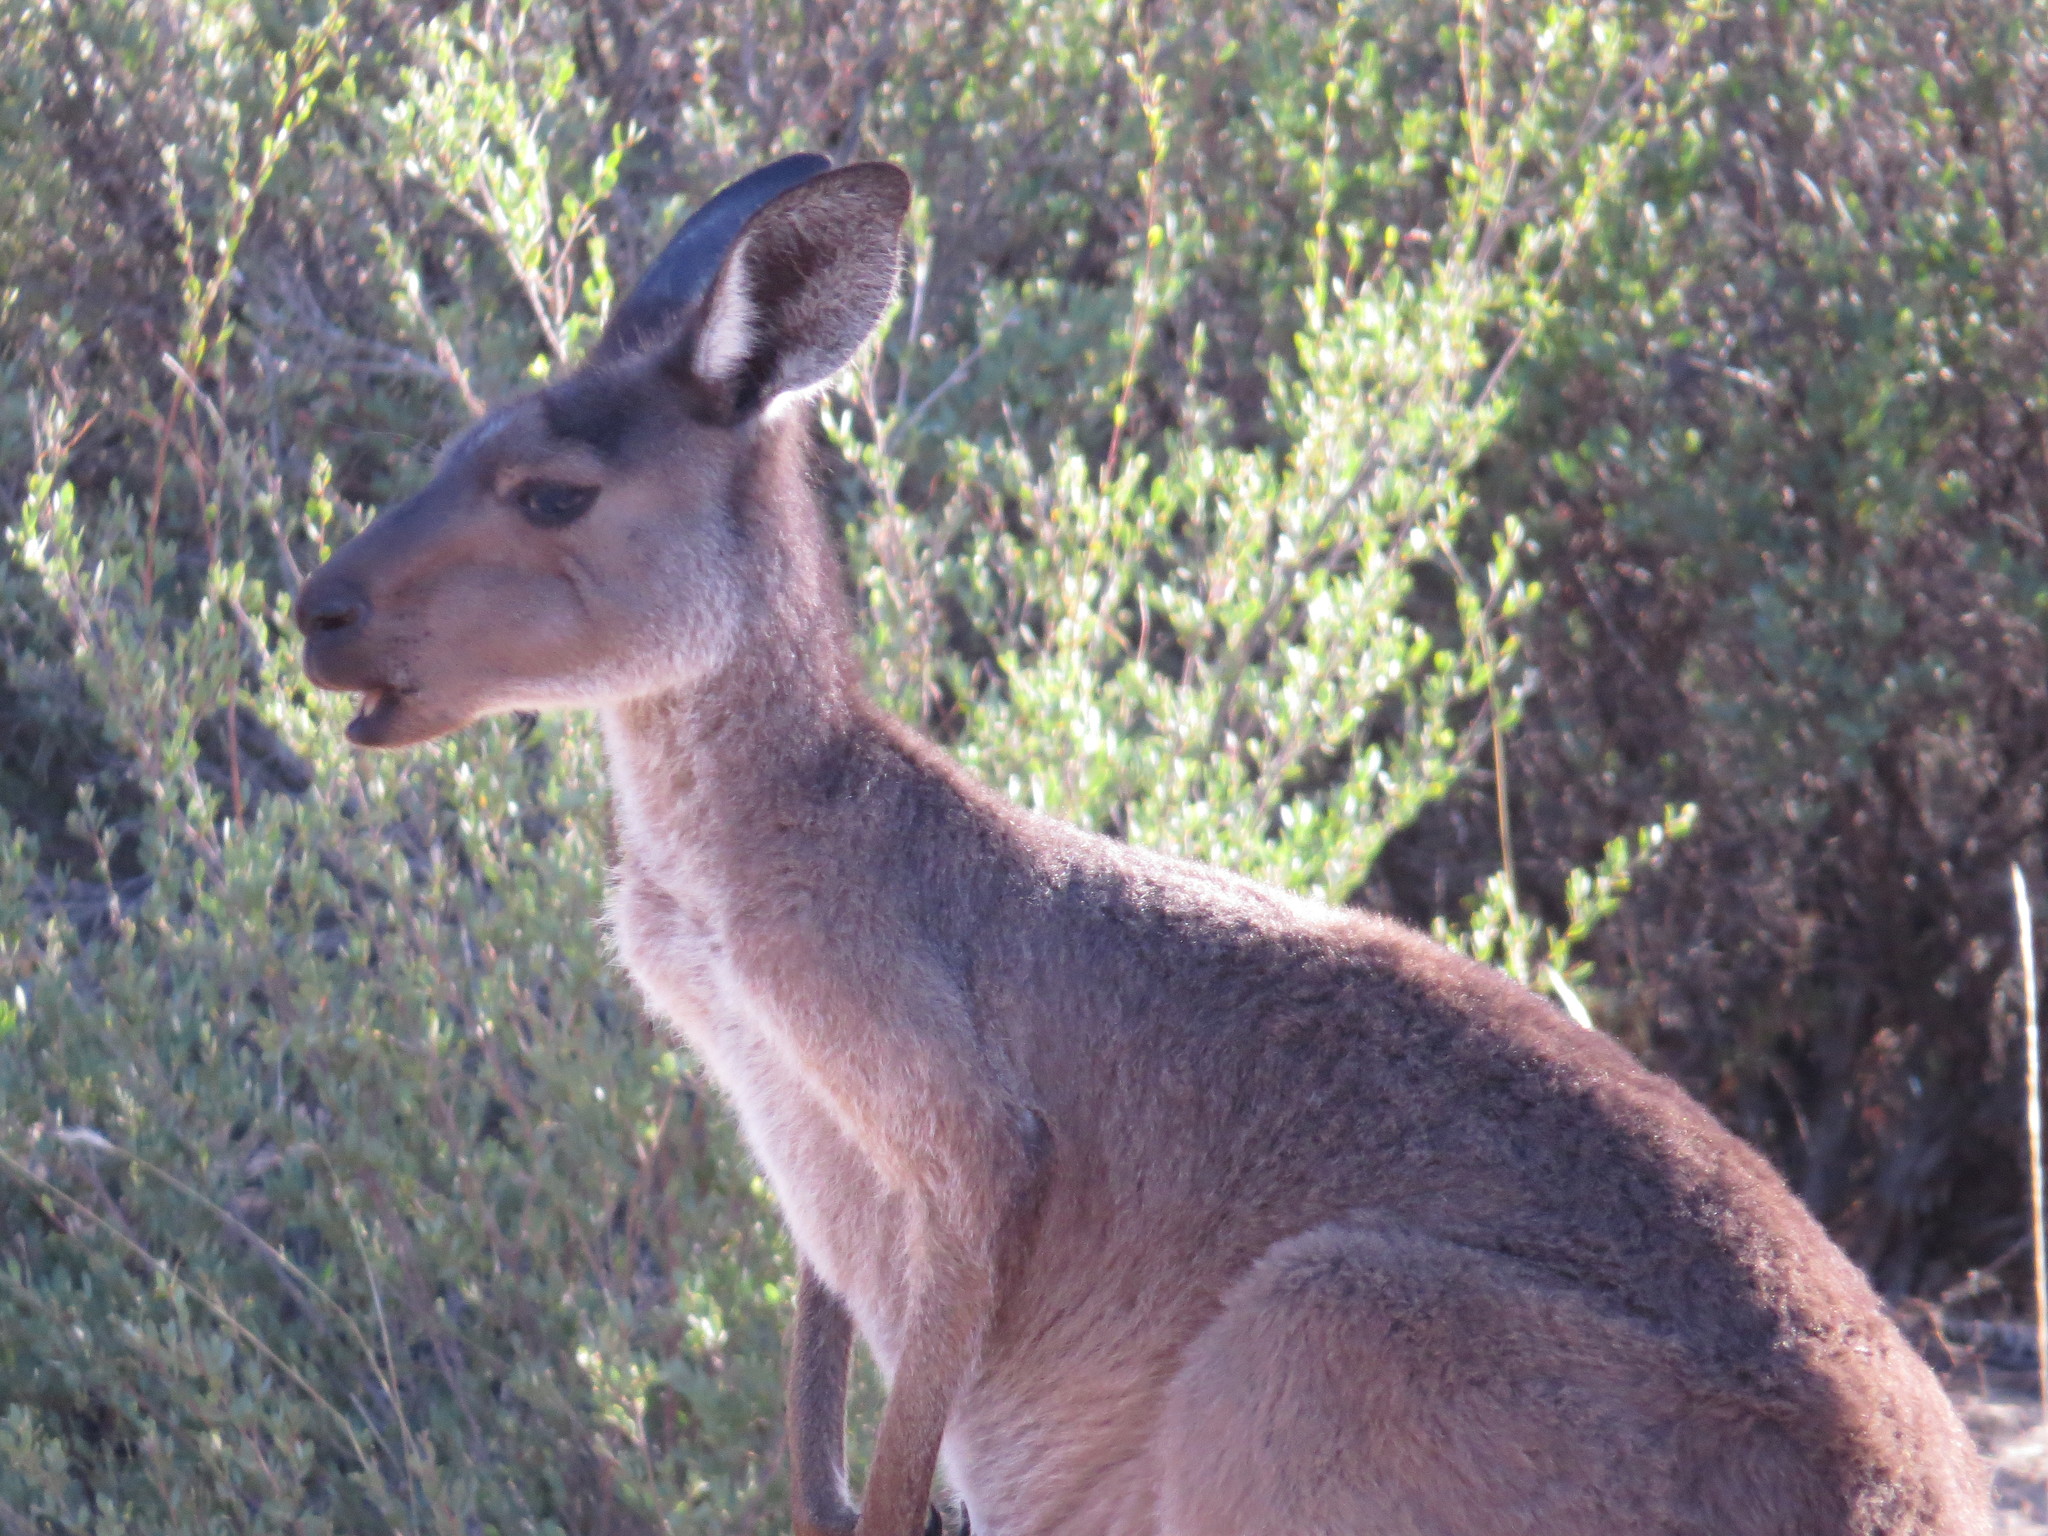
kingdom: Animalia
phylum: Chordata
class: Mammalia
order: Diprotodontia
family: Macropodidae
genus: Macropus
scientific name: Macropus fuliginosus
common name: Western grey kangaroo
